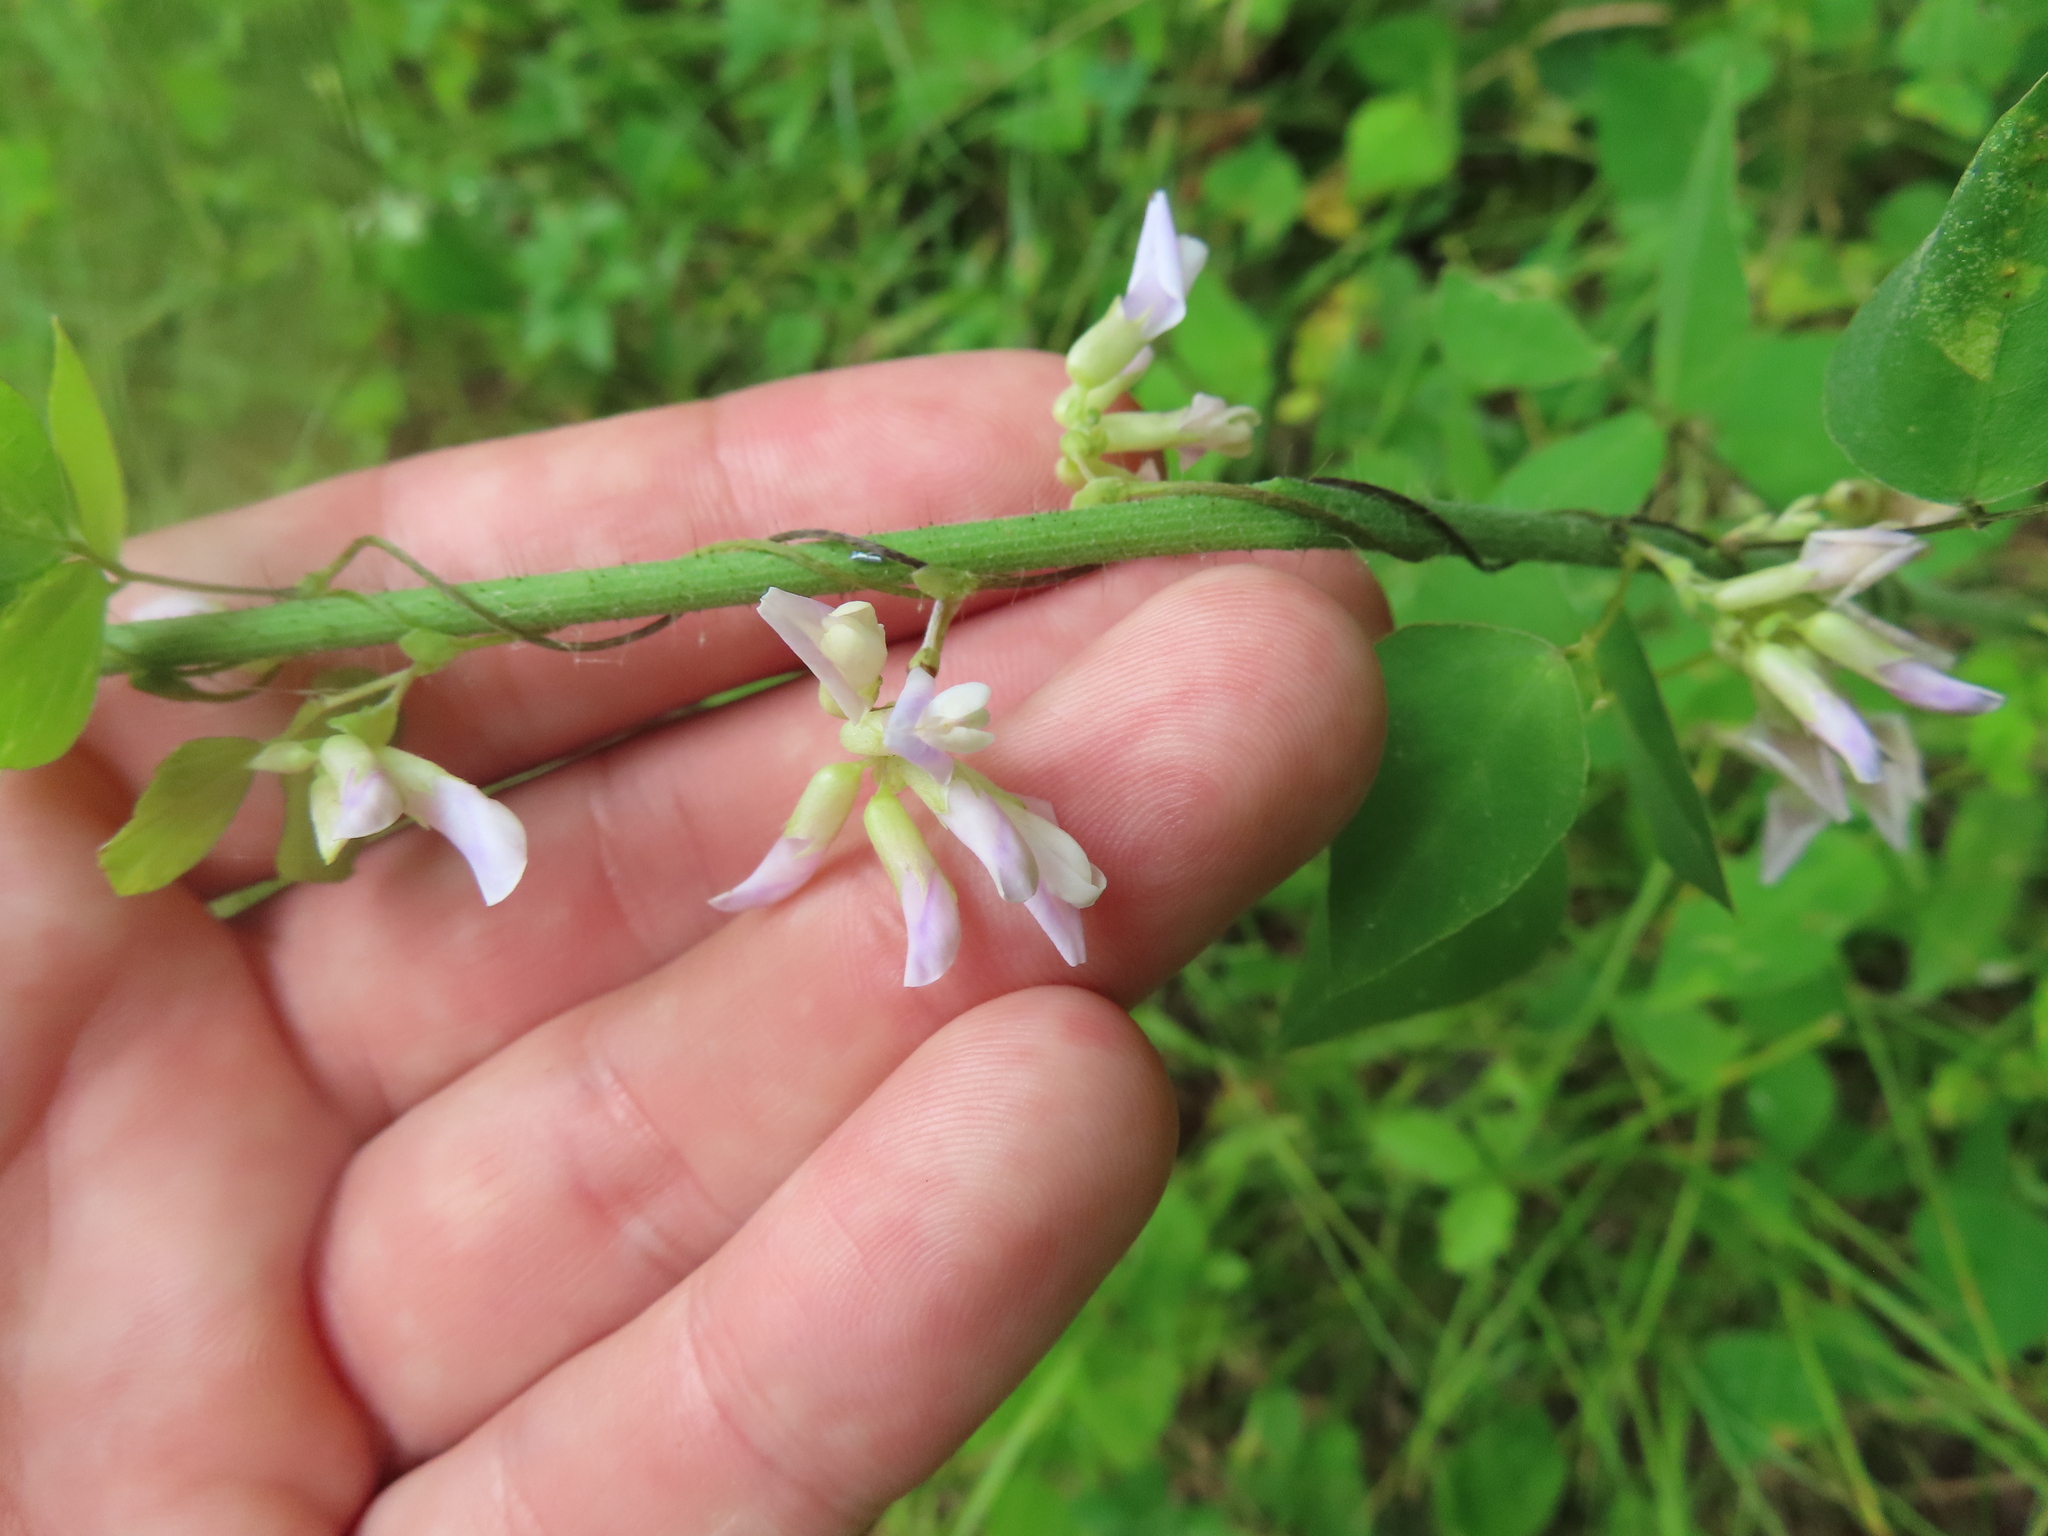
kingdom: Plantae
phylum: Tracheophyta
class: Magnoliopsida
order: Fabales
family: Fabaceae
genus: Amphicarpaea
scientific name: Amphicarpaea bracteata
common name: American hog peanut
